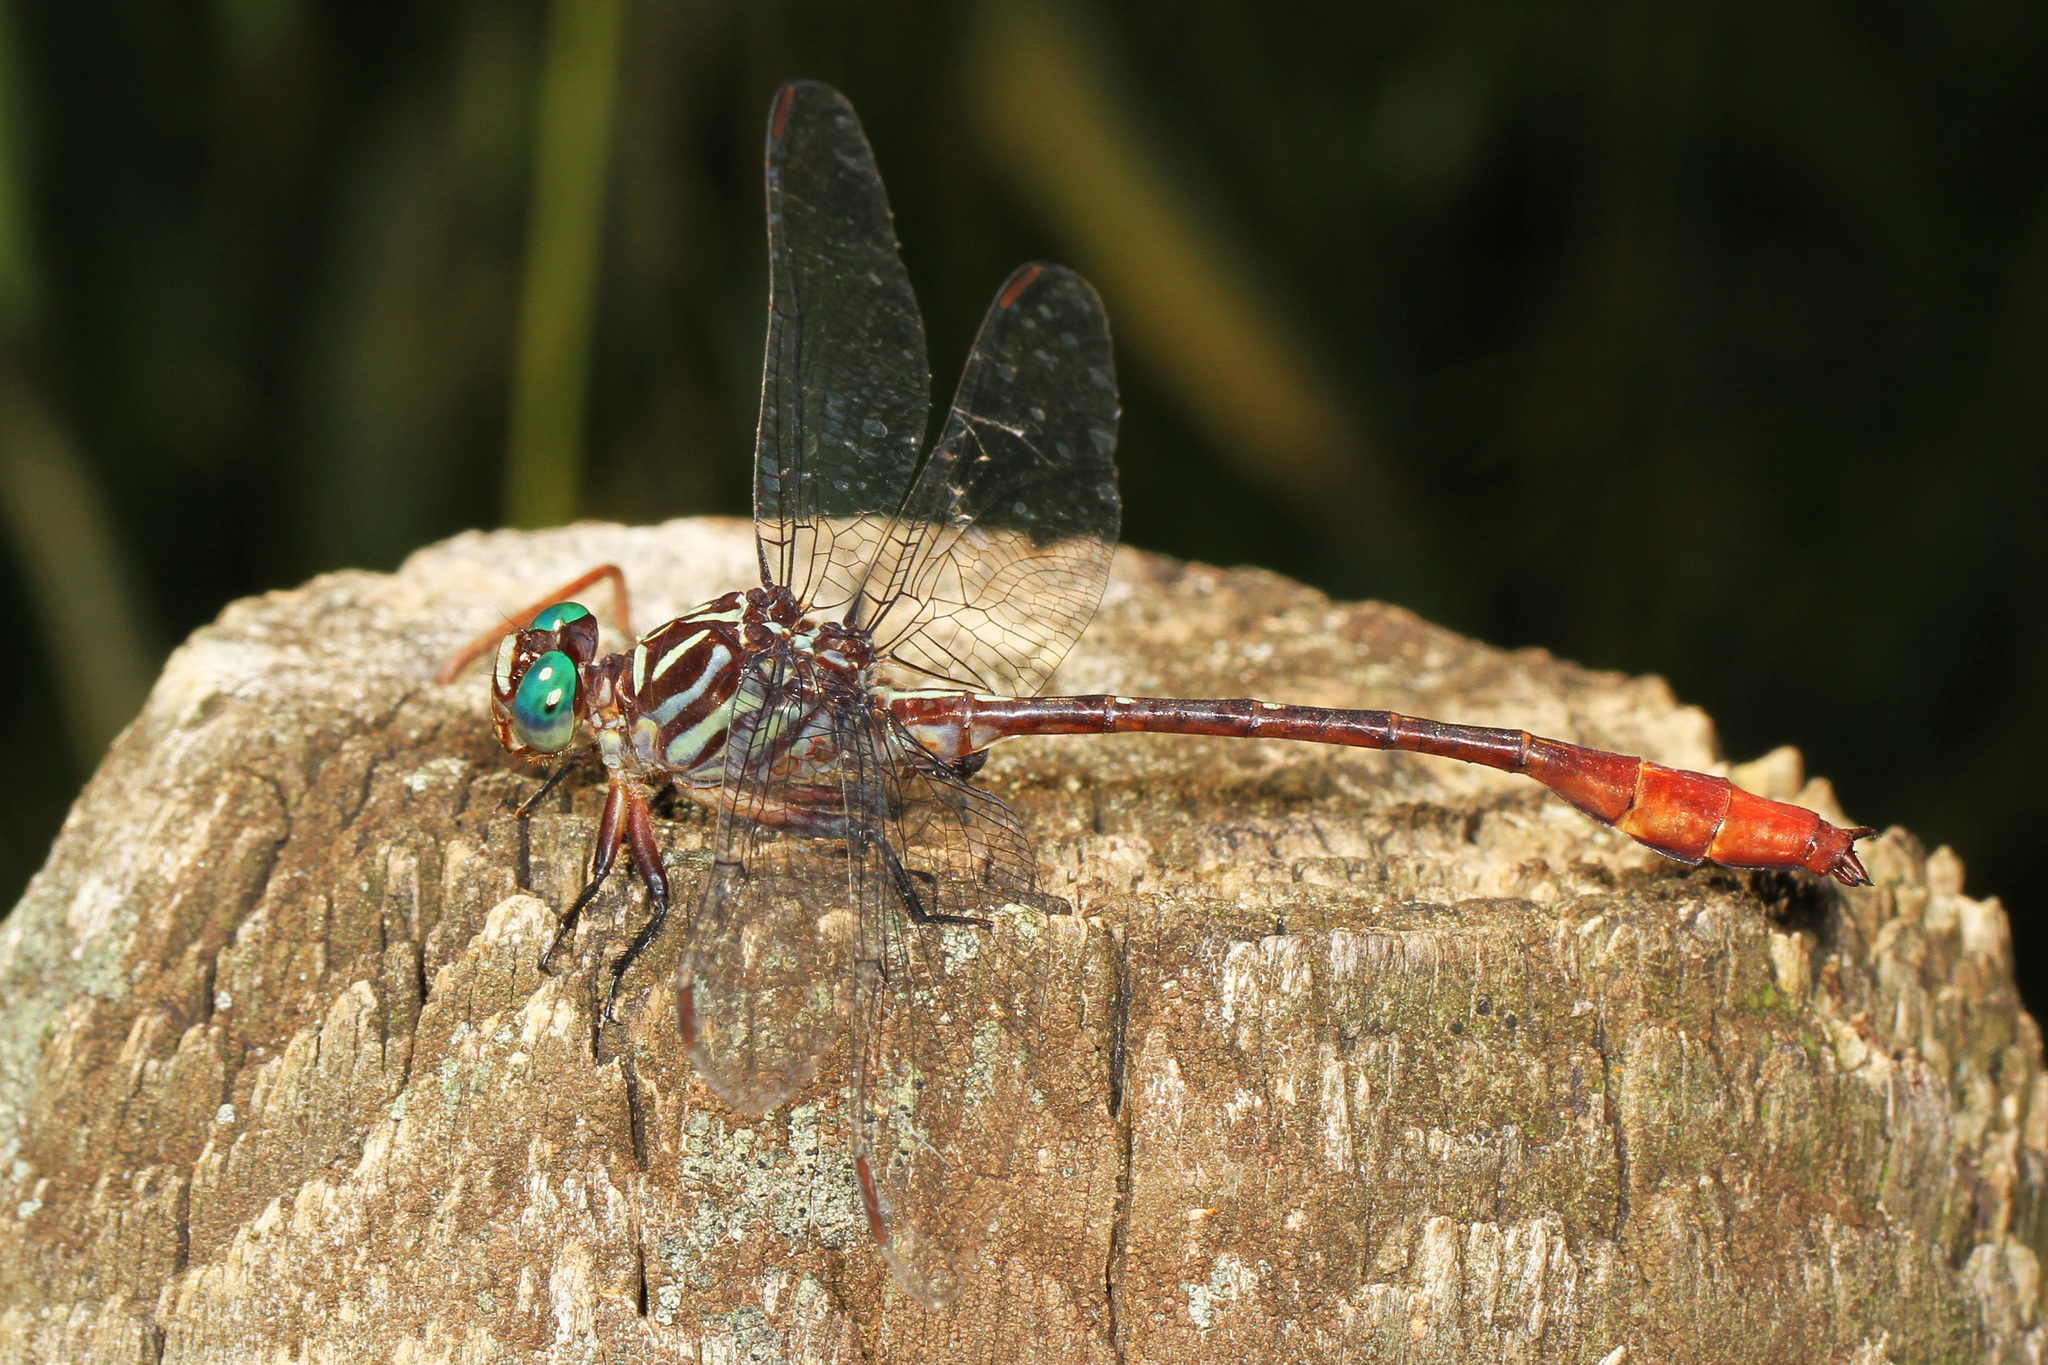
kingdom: Animalia
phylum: Arthropoda
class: Insecta
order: Odonata
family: Gomphidae
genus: Stylurus
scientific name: Stylurus plagiatus
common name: Russet-tipped clubtail
